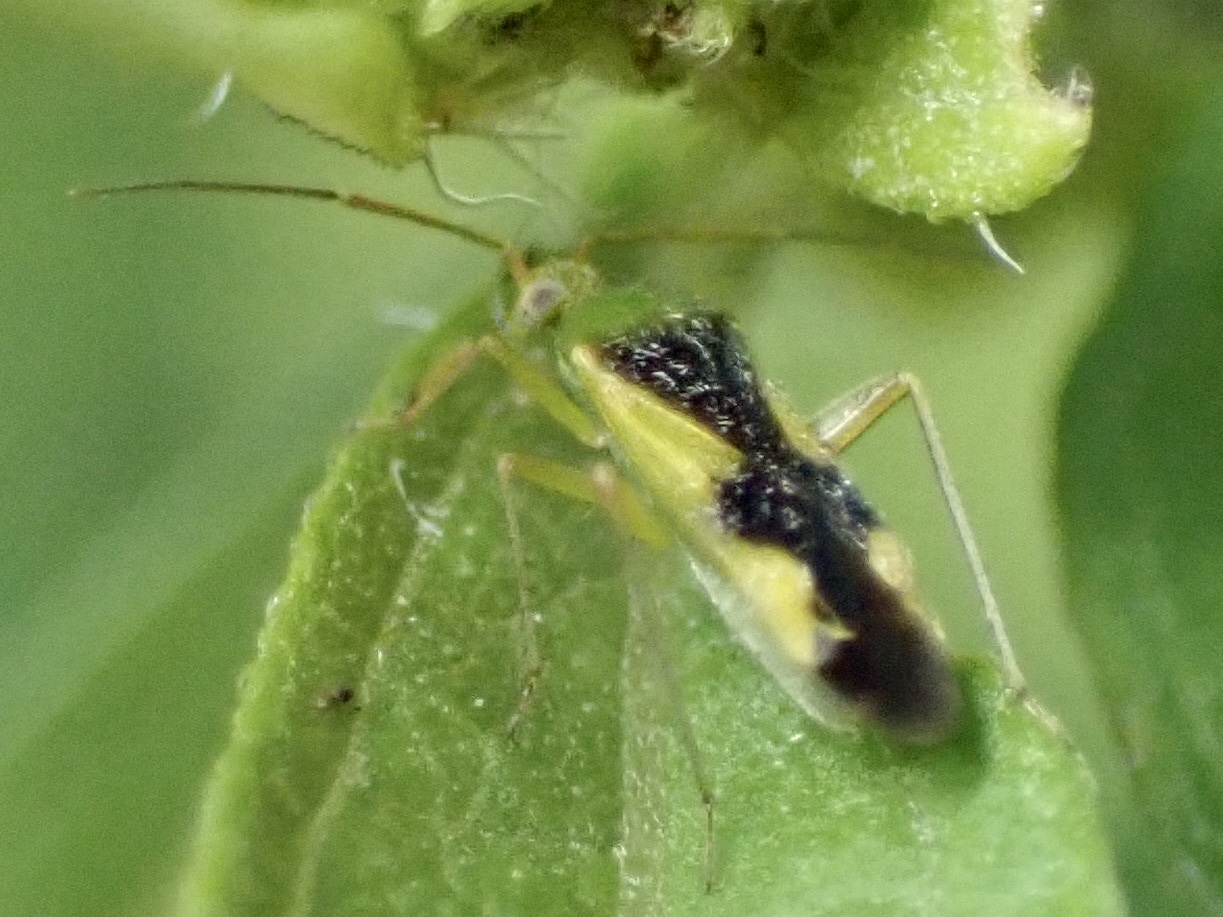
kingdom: Animalia
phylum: Arthropoda
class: Insecta
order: Hemiptera
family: Miridae
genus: Reuteroscopus
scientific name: Reuteroscopus ornatus
